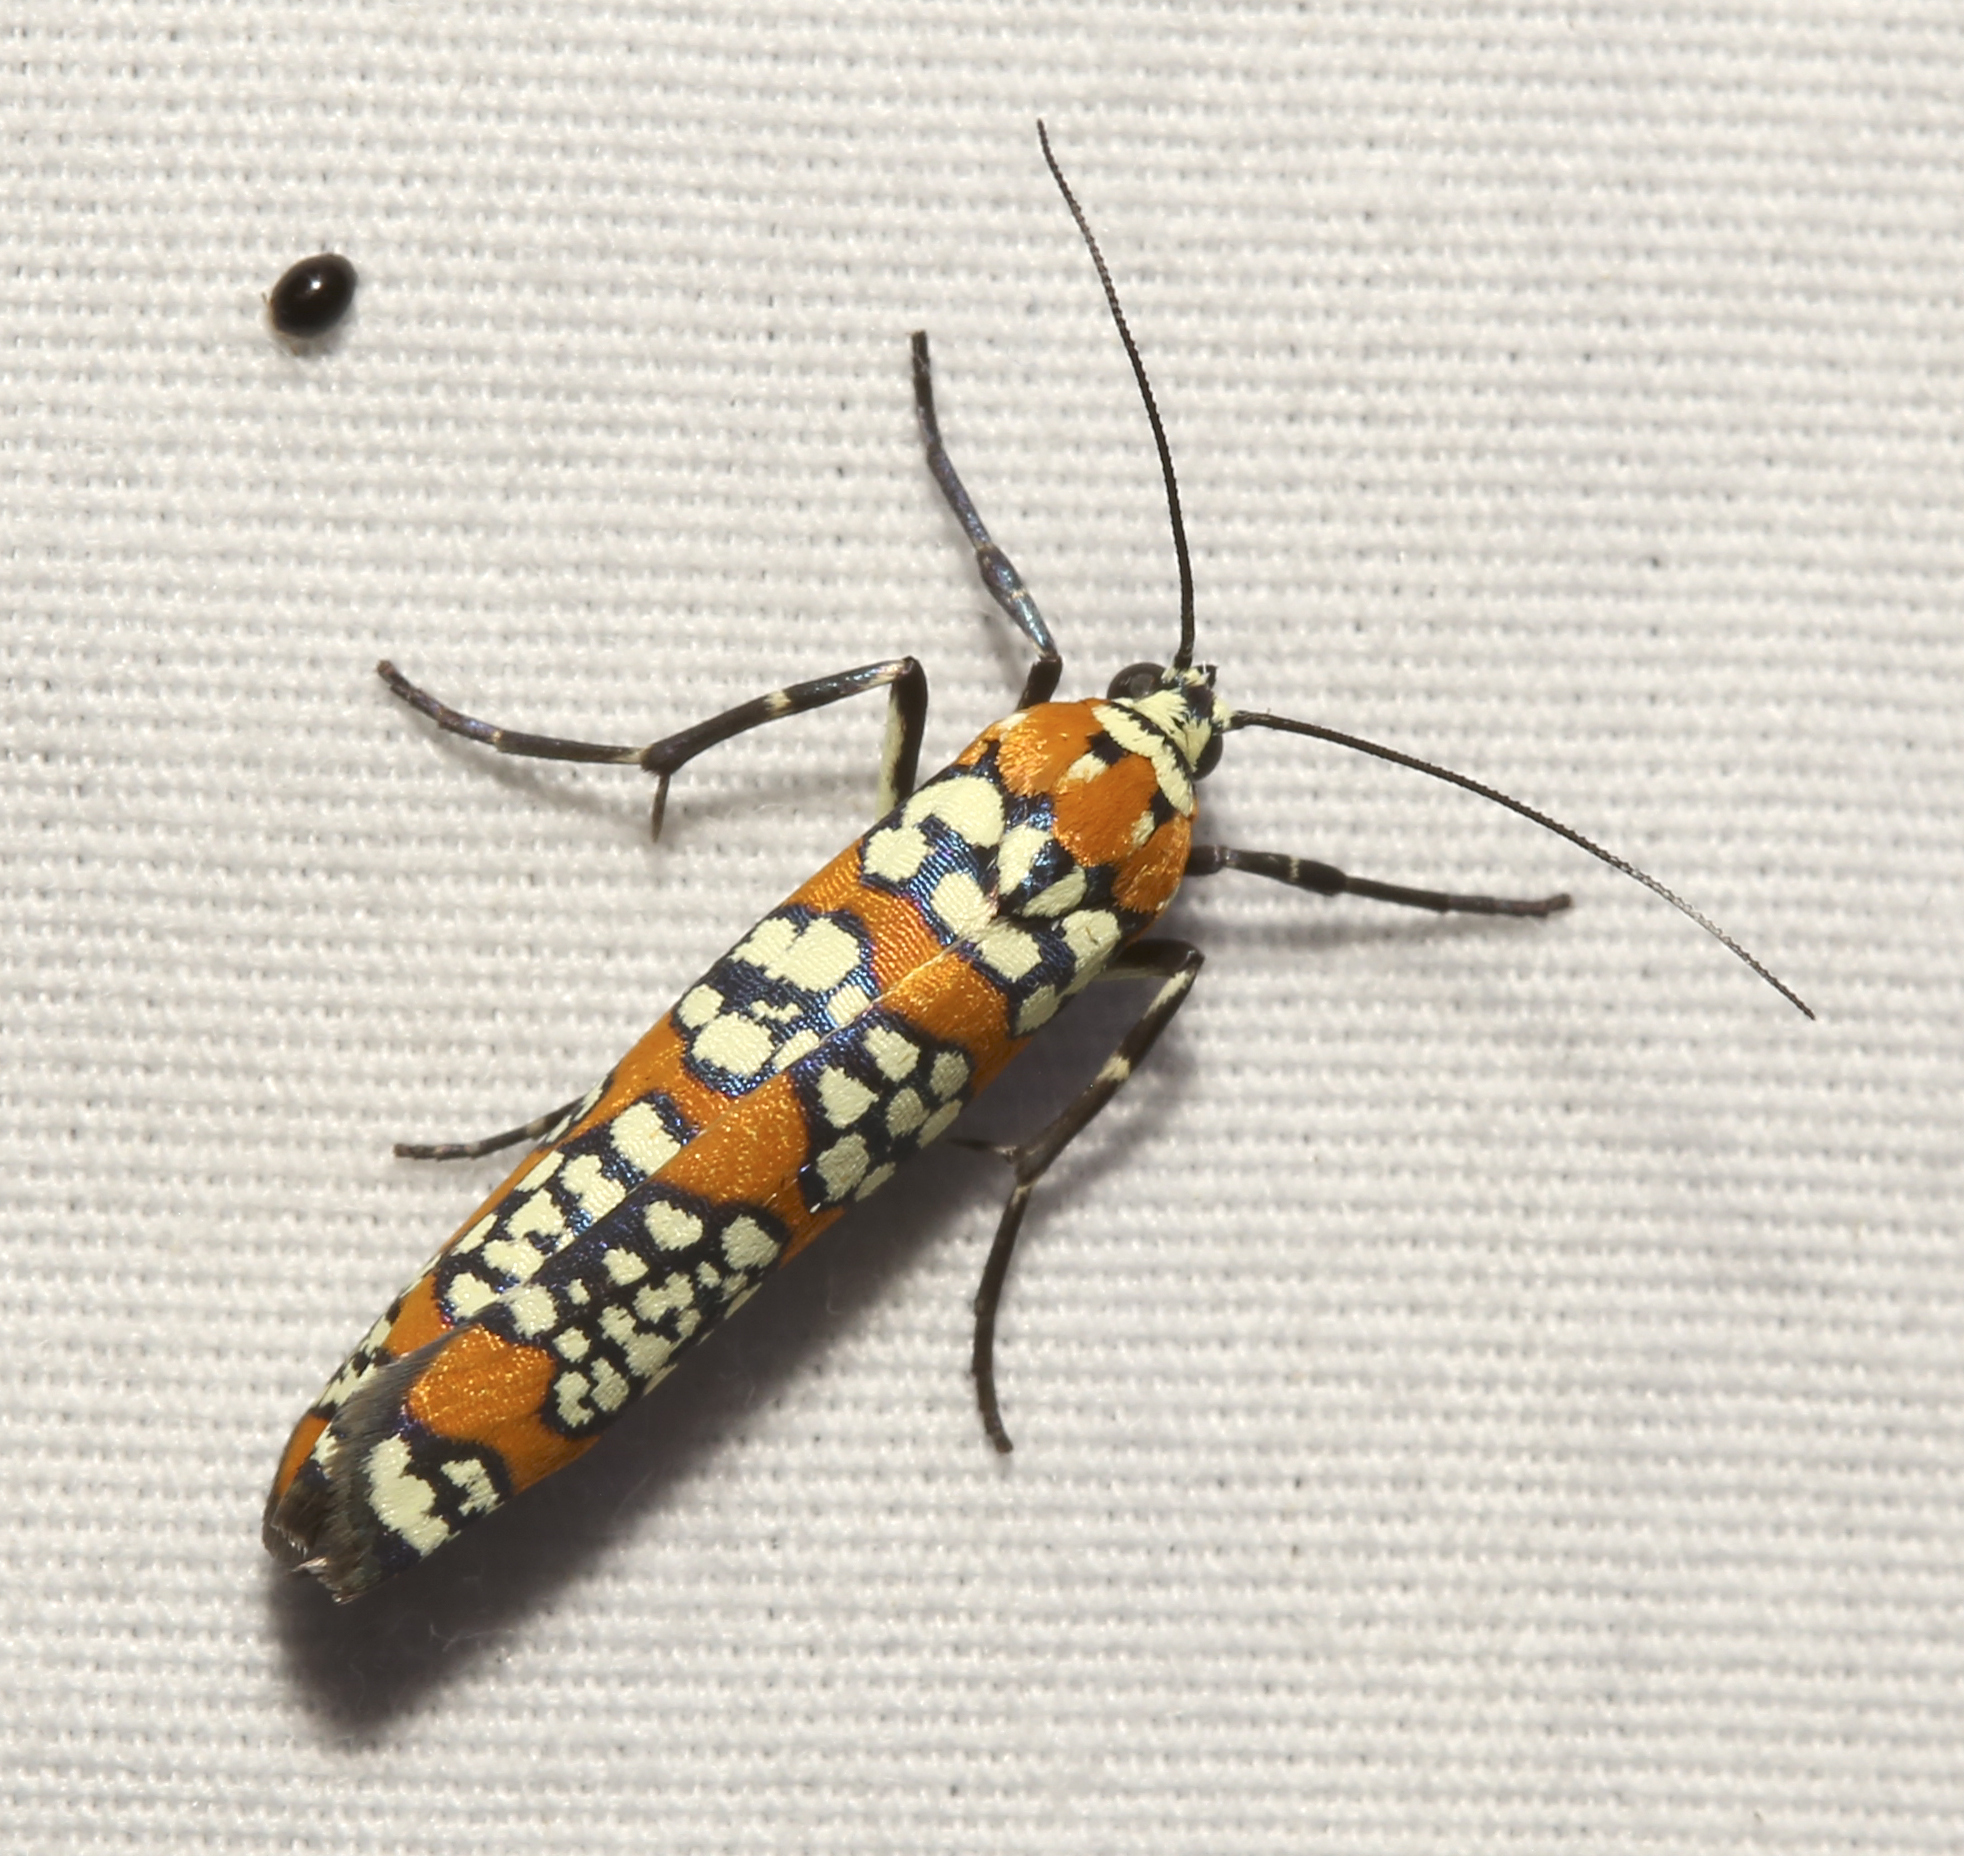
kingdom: Animalia
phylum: Arthropoda
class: Insecta
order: Lepidoptera
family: Attevidae
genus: Atteva
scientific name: Atteva punctella
